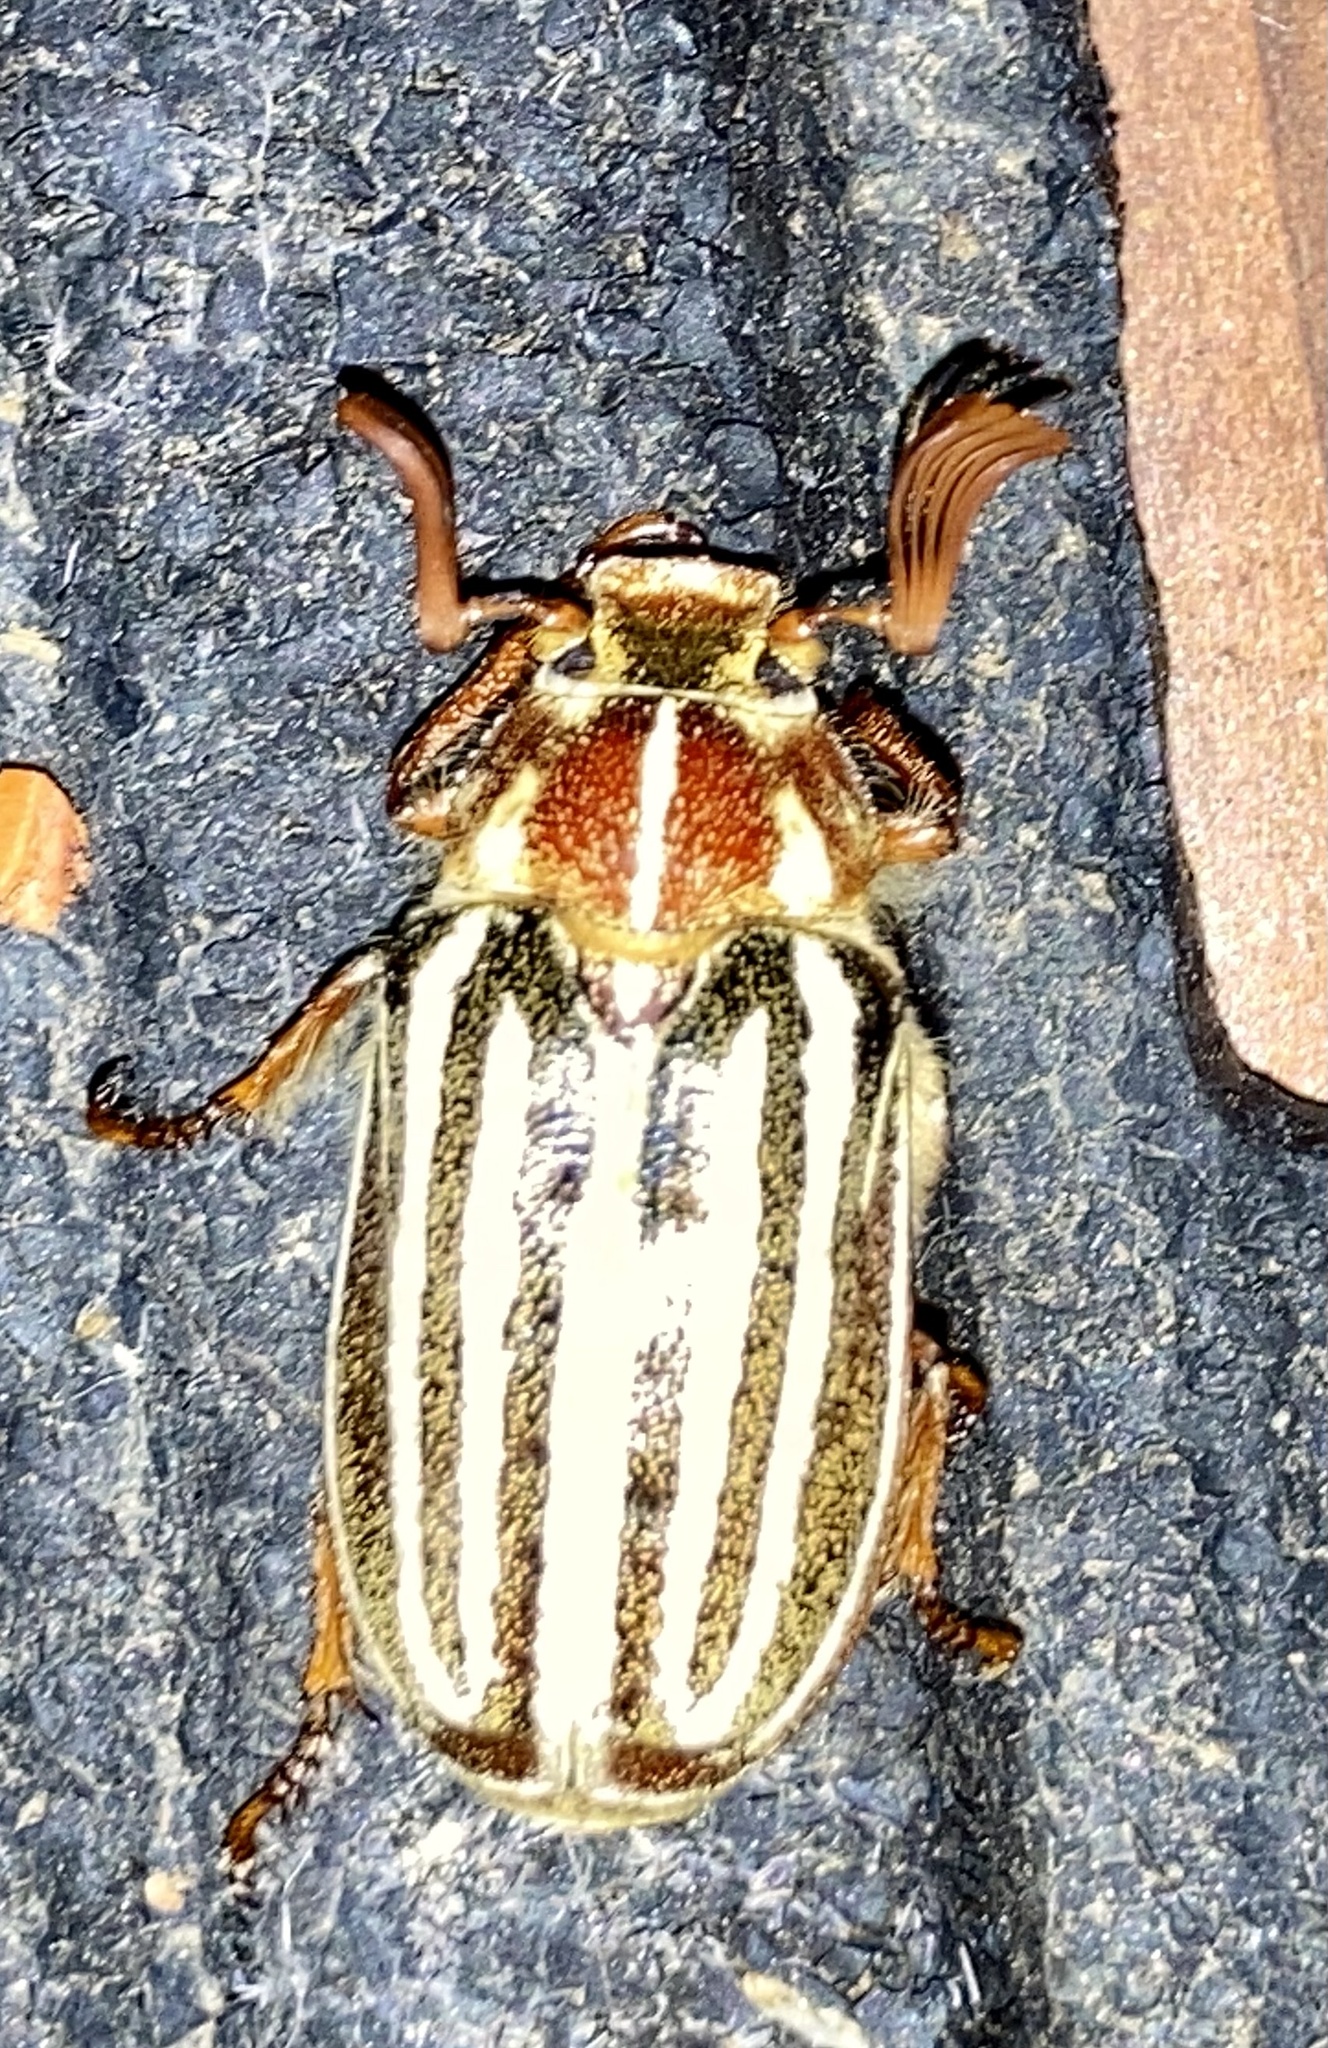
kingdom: Animalia
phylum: Arthropoda
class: Insecta
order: Coleoptera
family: Scarabaeidae
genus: Polyphylla
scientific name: Polyphylla decemlineata
